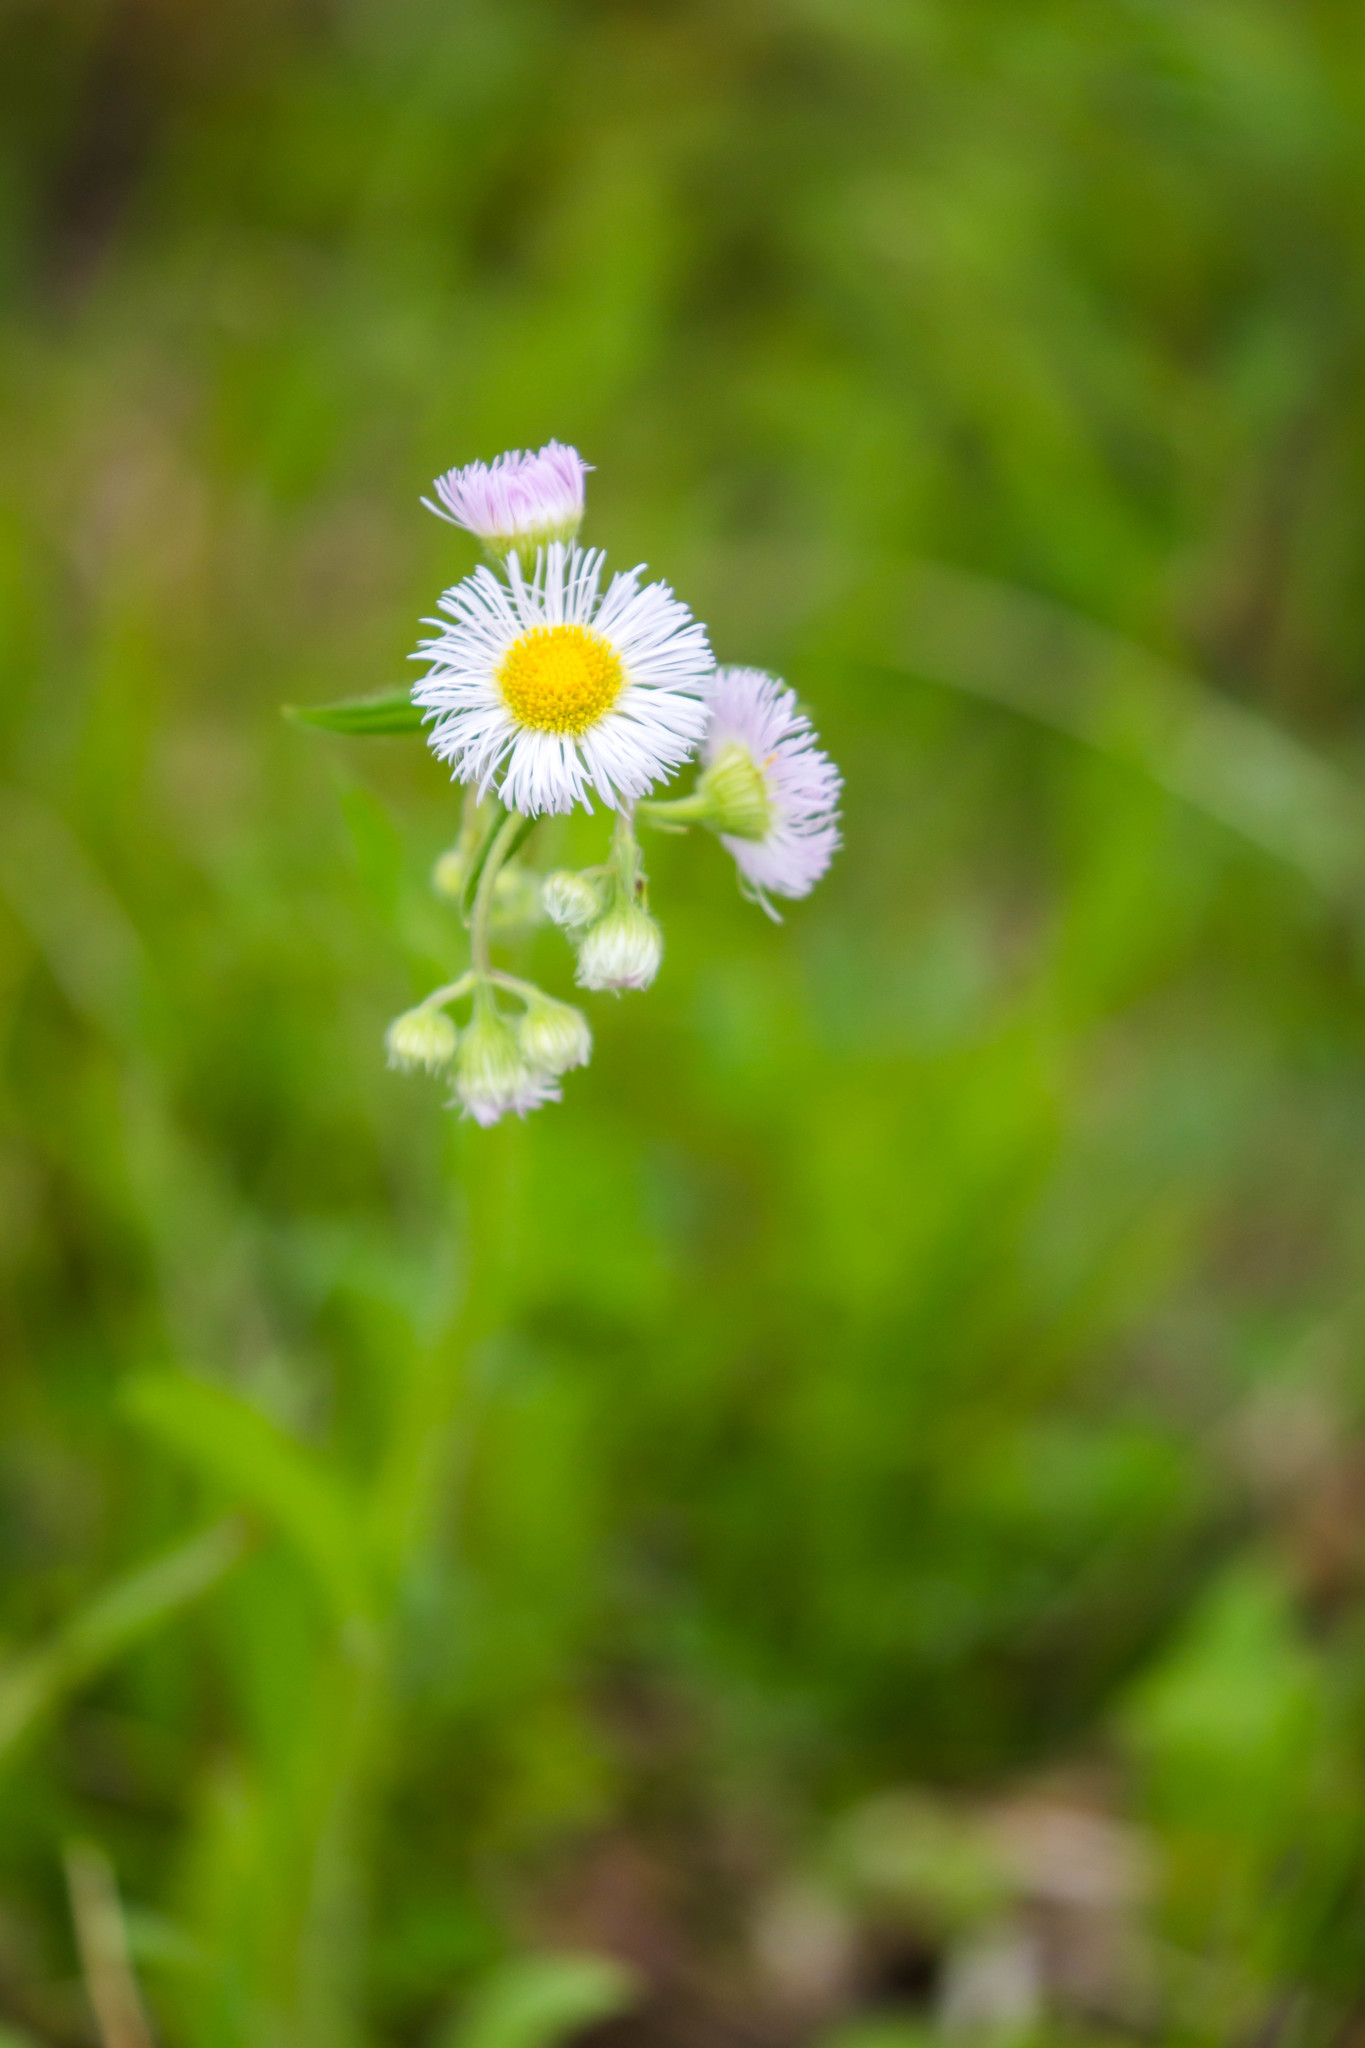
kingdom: Plantae
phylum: Tracheophyta
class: Magnoliopsida
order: Asterales
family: Asteraceae
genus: Erigeron
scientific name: Erigeron philadelphicus
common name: Robin's-plantain
